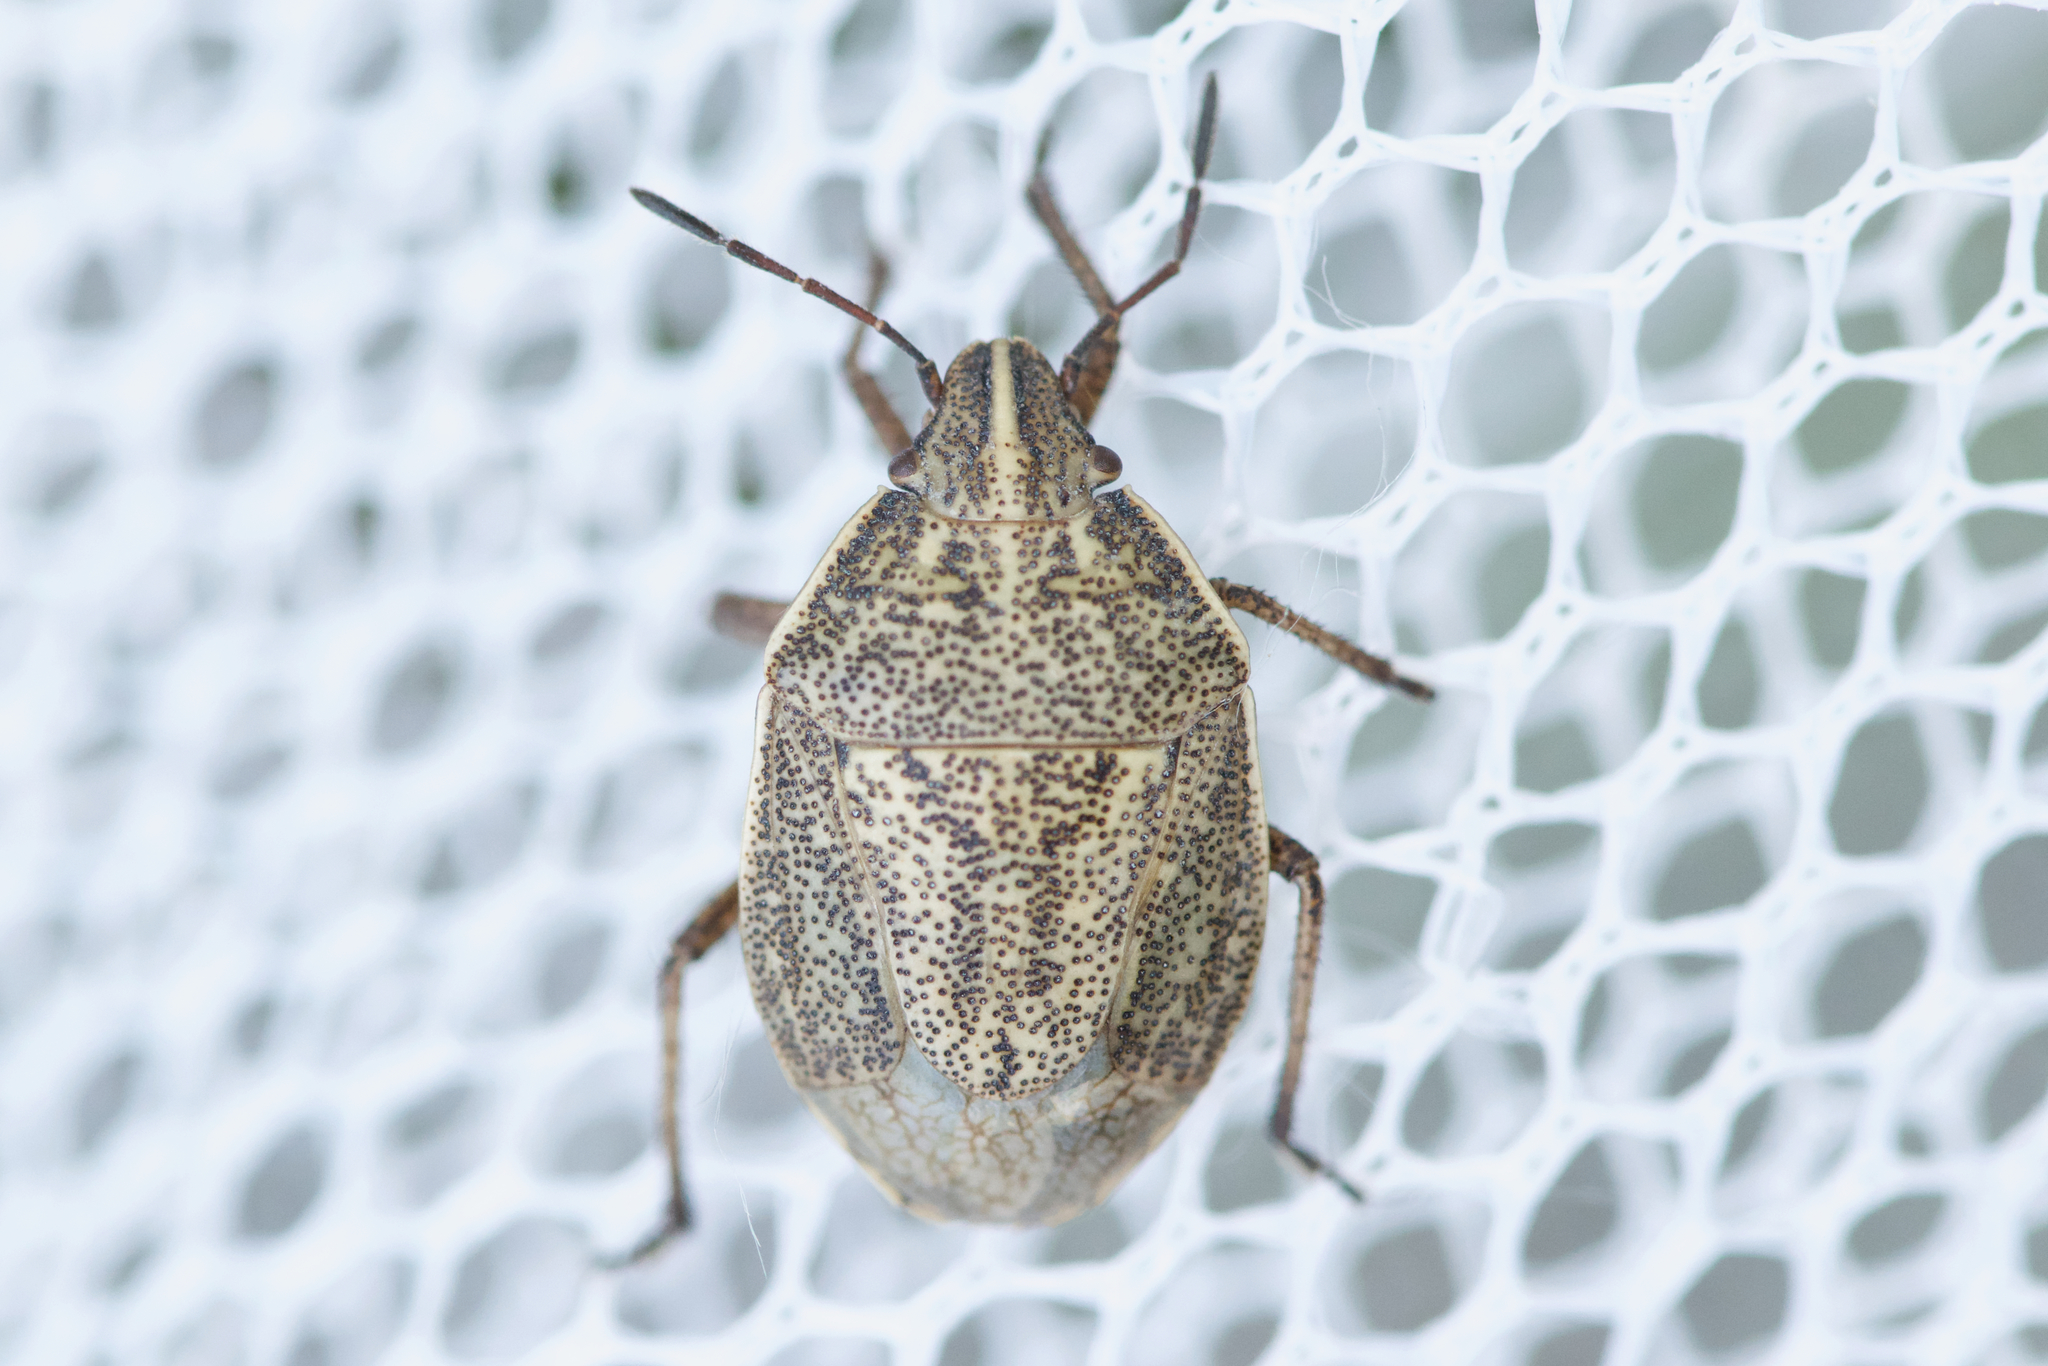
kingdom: Animalia
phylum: Arthropoda
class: Insecta
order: Hemiptera
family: Pentatomidae
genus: Coenus
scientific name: Coenus delius
